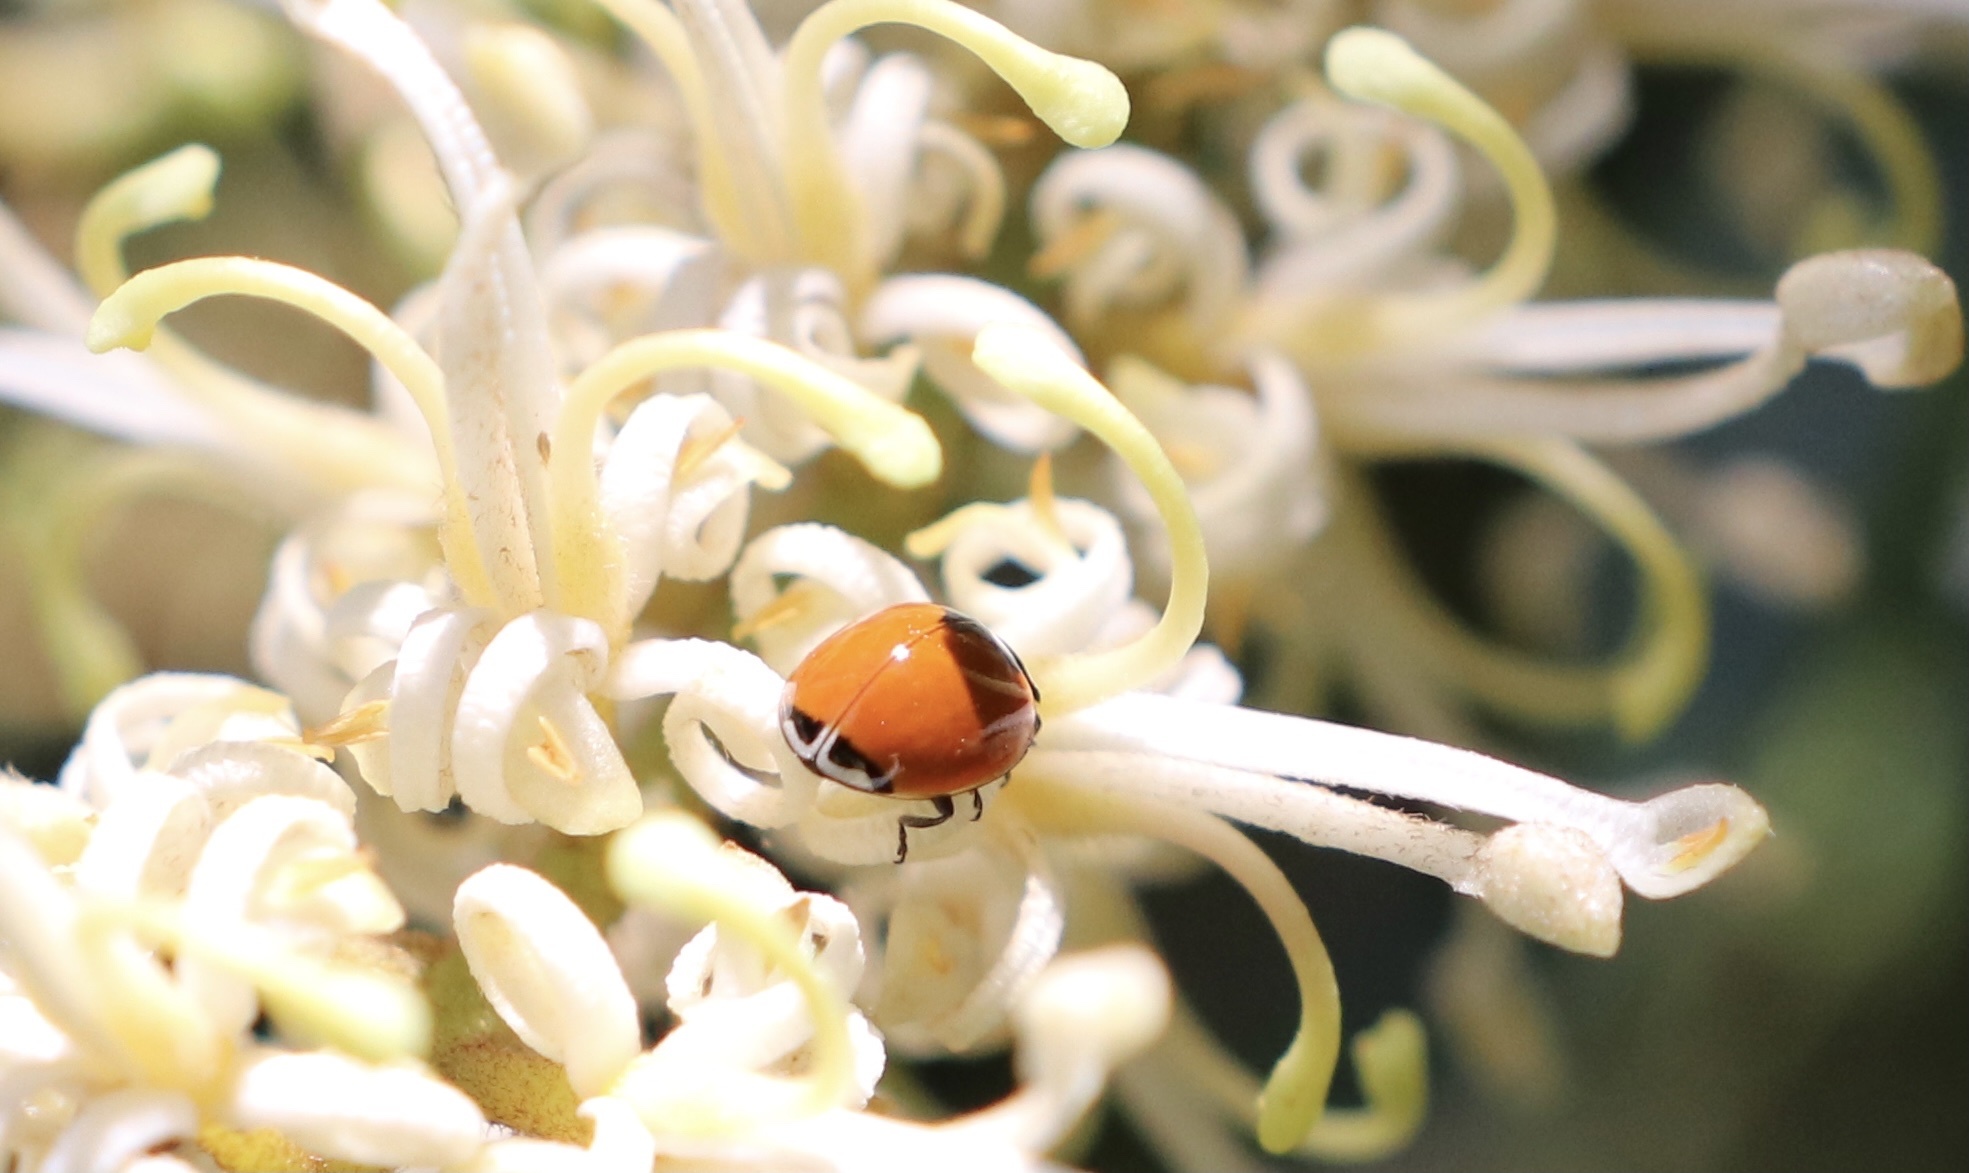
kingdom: Animalia
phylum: Arthropoda
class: Insecta
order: Coleoptera
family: Coccinellidae
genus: Adalia
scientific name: Adalia deficiens
